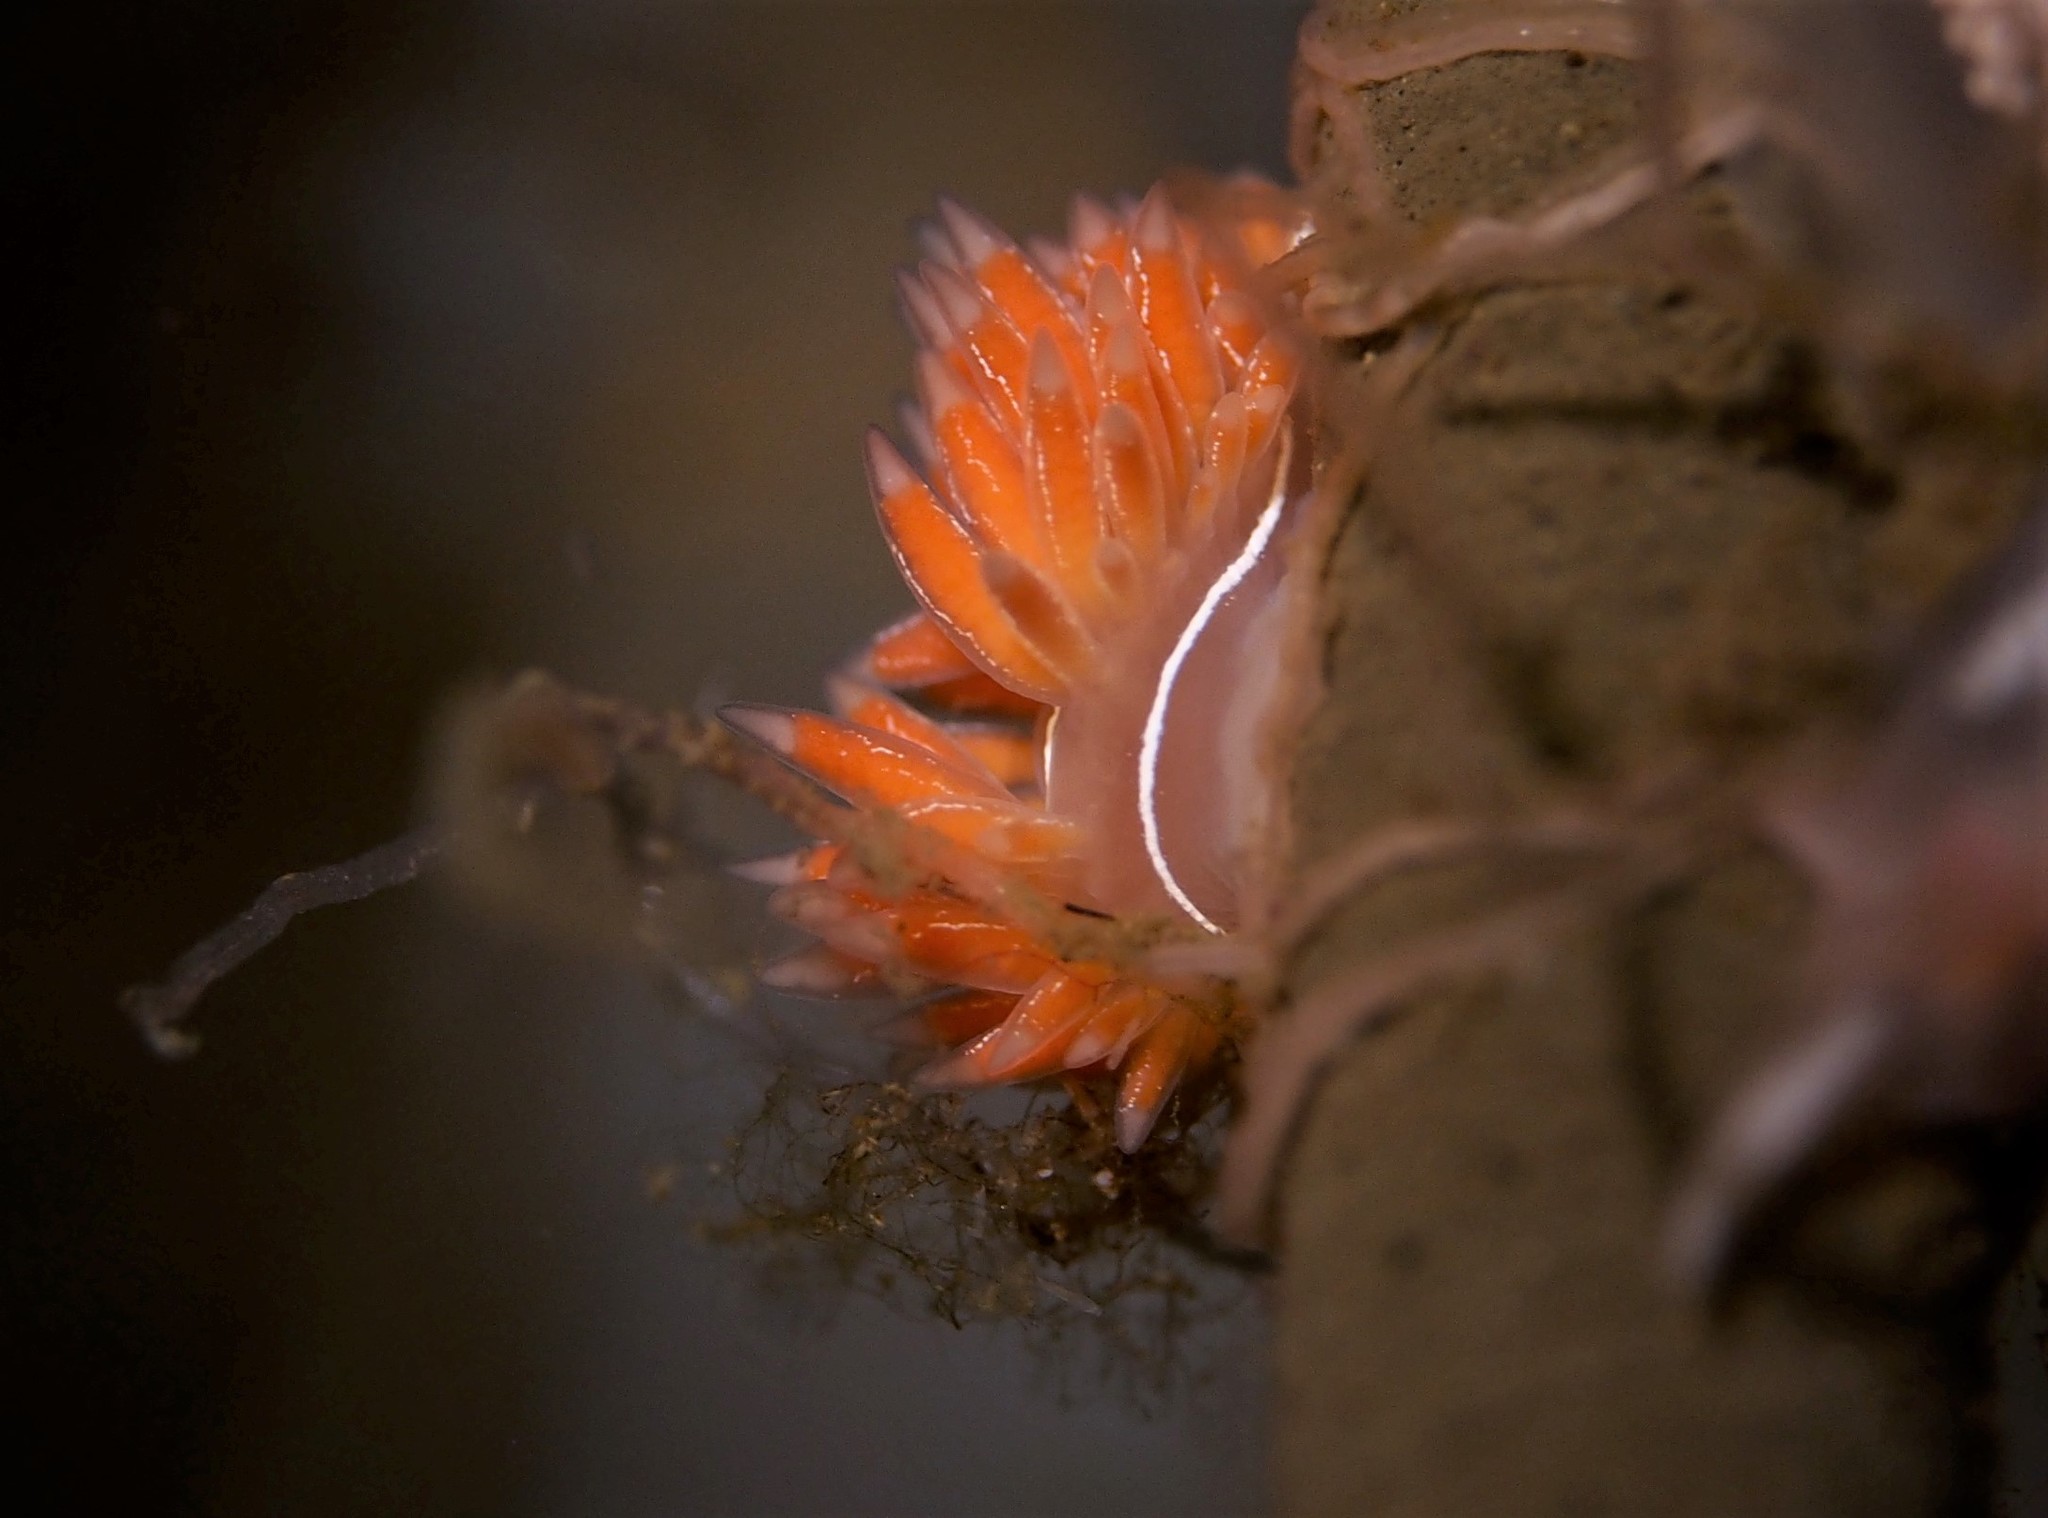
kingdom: Animalia
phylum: Mollusca
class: Gastropoda
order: Nudibranchia
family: Coryphellidae
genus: Coryphella
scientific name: Coryphella chriskaugei
